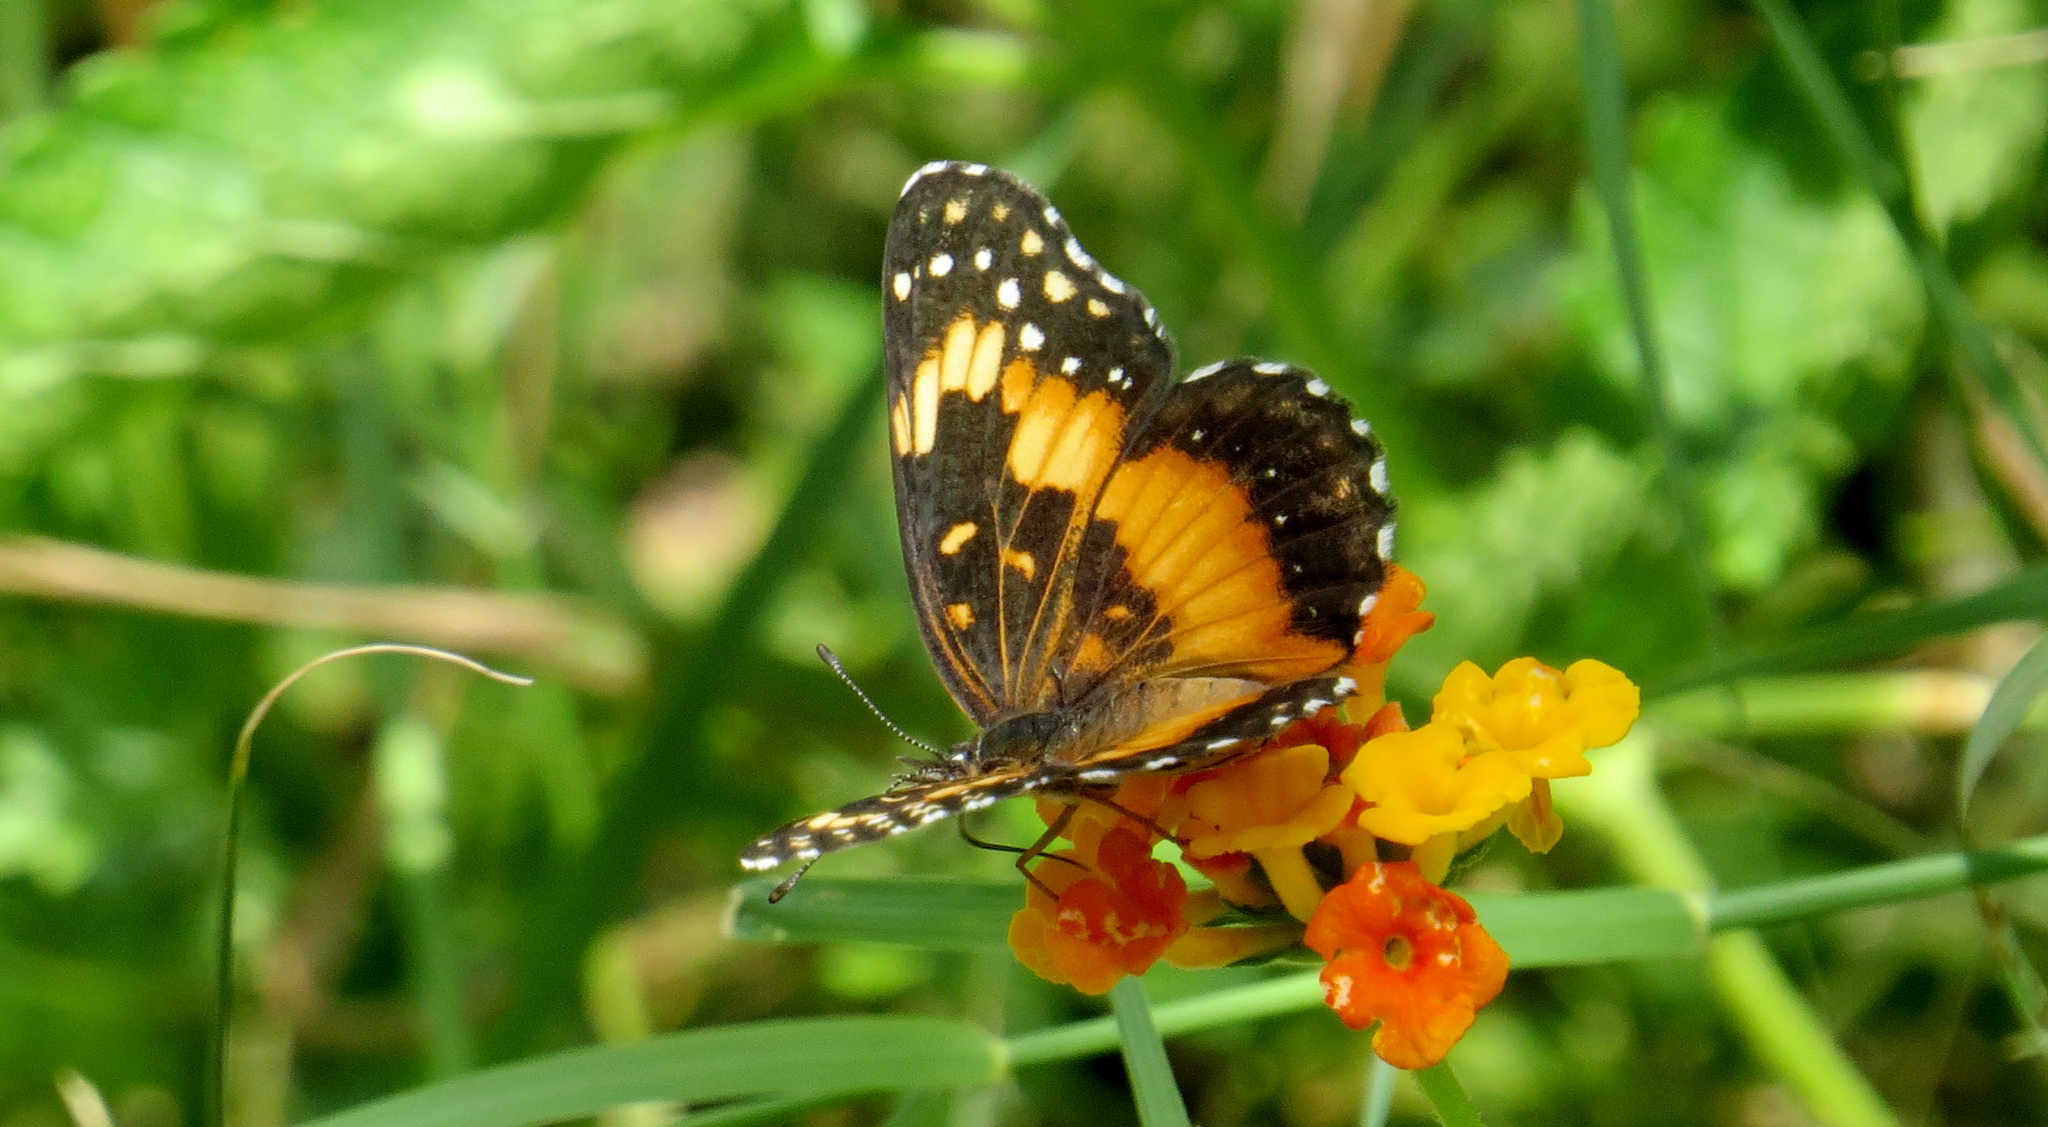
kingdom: Animalia
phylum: Arthropoda
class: Insecta
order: Lepidoptera
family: Nymphalidae
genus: Chlosyne
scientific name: Chlosyne lacinia
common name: Bordered patch
